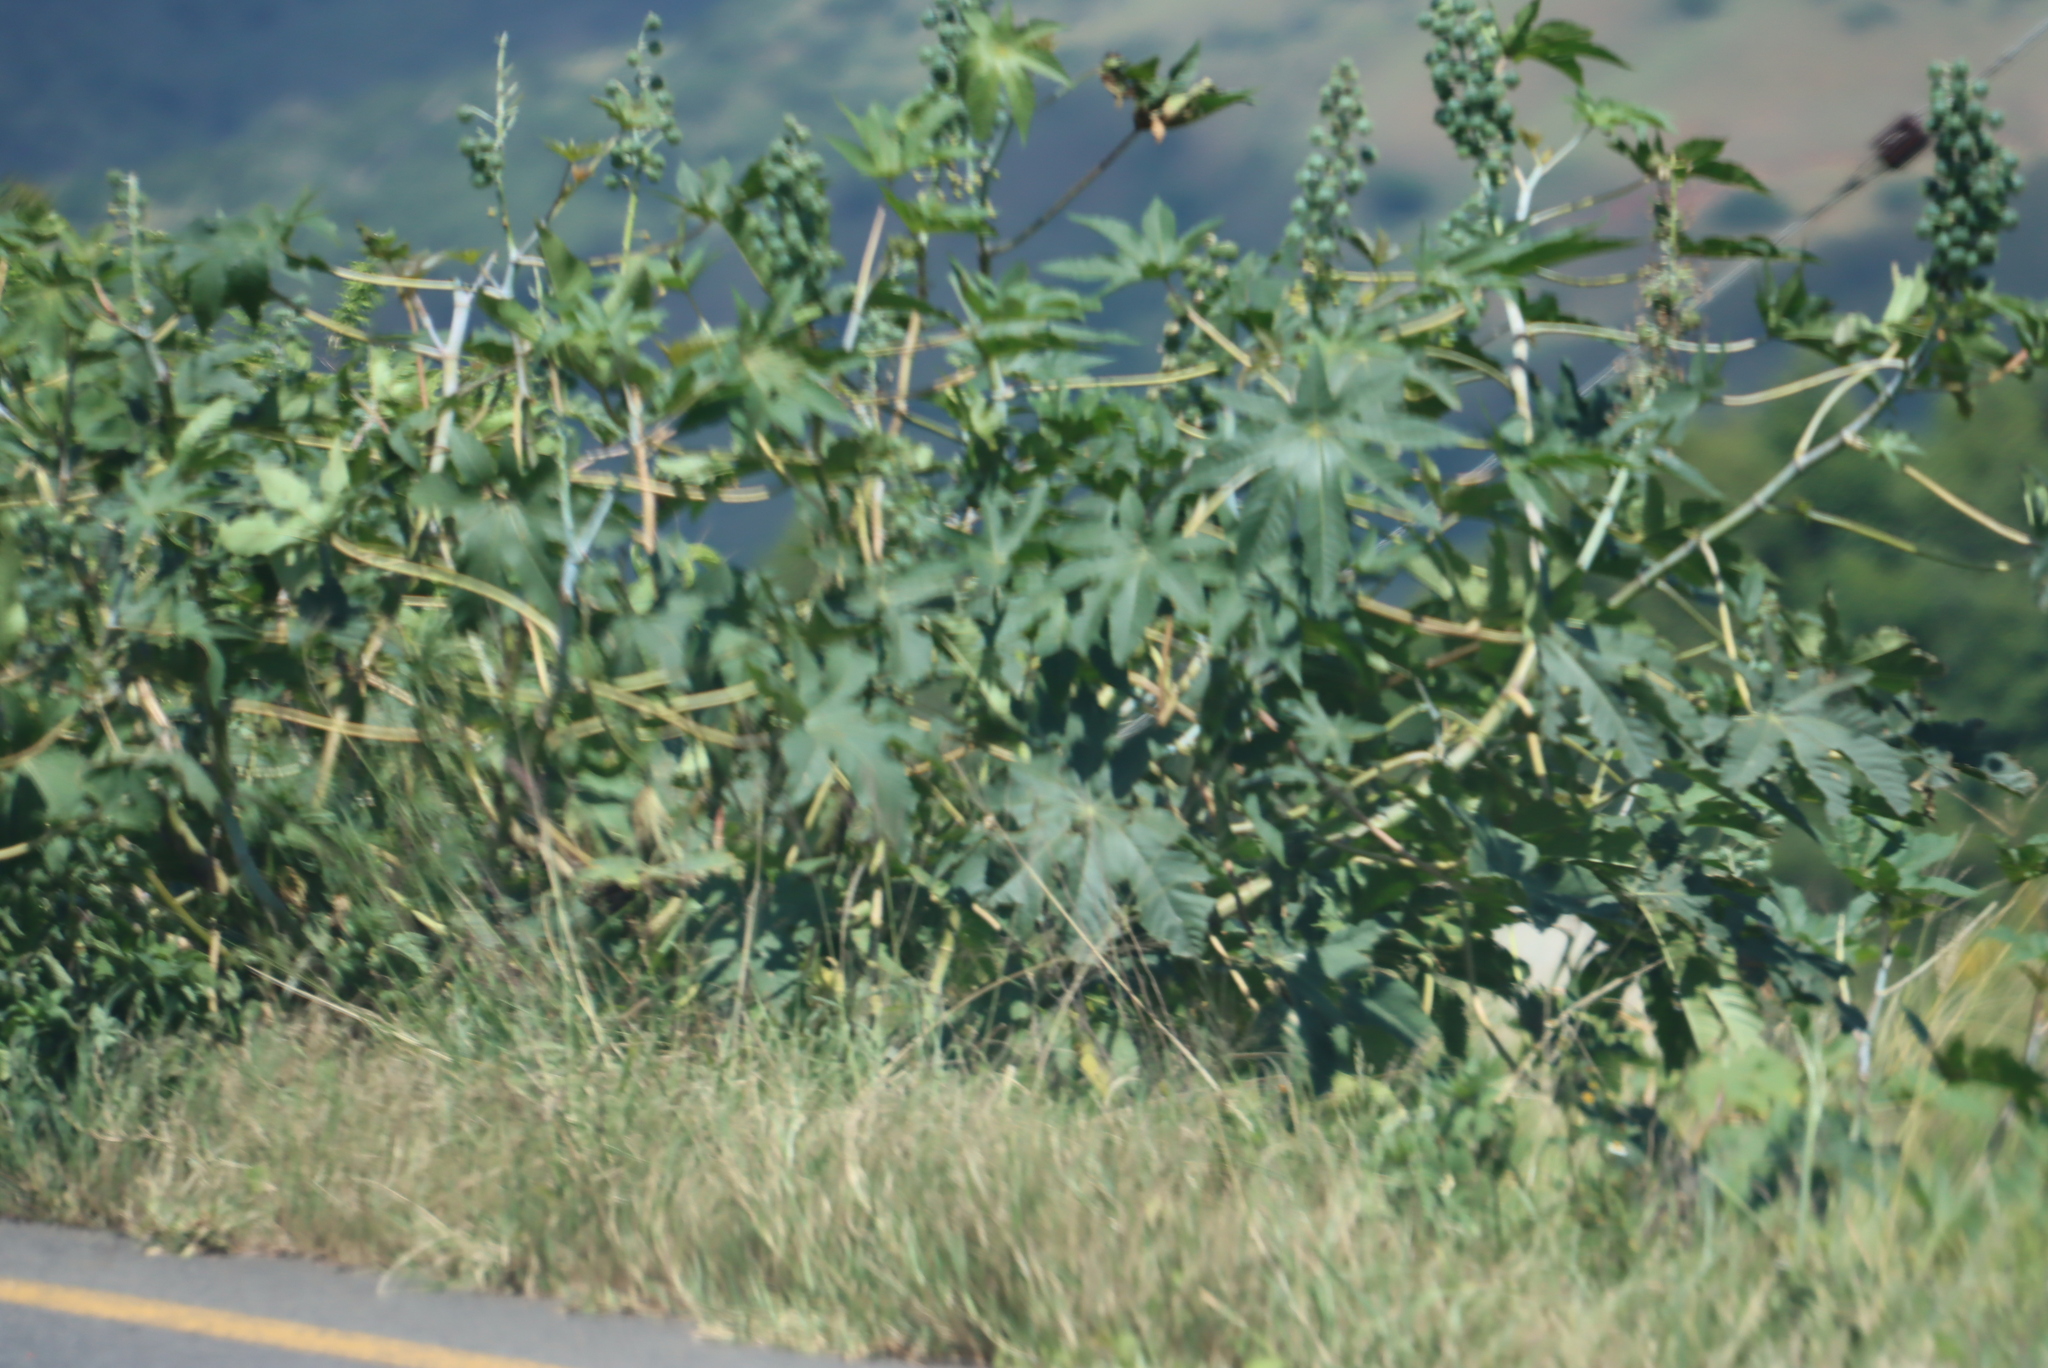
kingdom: Plantae
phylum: Tracheophyta
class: Magnoliopsida
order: Malpighiales
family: Euphorbiaceae
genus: Ricinus
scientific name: Ricinus communis
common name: Castor-oil-plant
